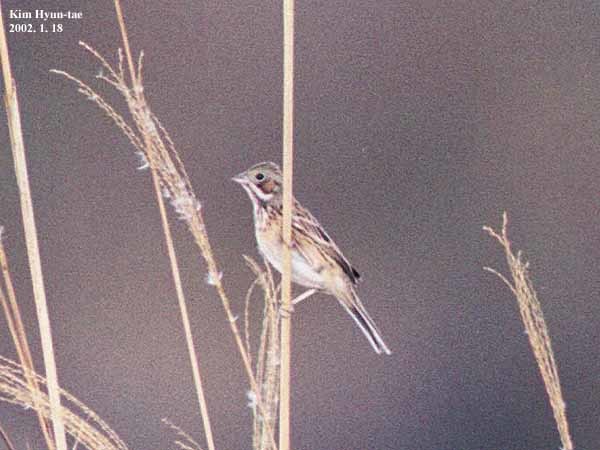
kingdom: Animalia
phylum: Chordata
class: Aves
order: Passeriformes
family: Emberizidae
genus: Emberiza
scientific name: Emberiza fucata
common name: Chestnut-eared bunting
